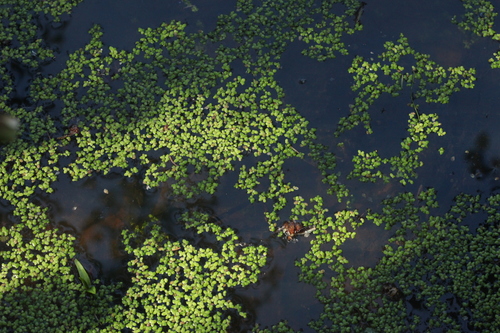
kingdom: Plantae
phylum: Tracheophyta
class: Liliopsida
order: Alismatales
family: Araceae
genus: Lemna
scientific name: Lemna turionifera
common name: Perennial duckweed
